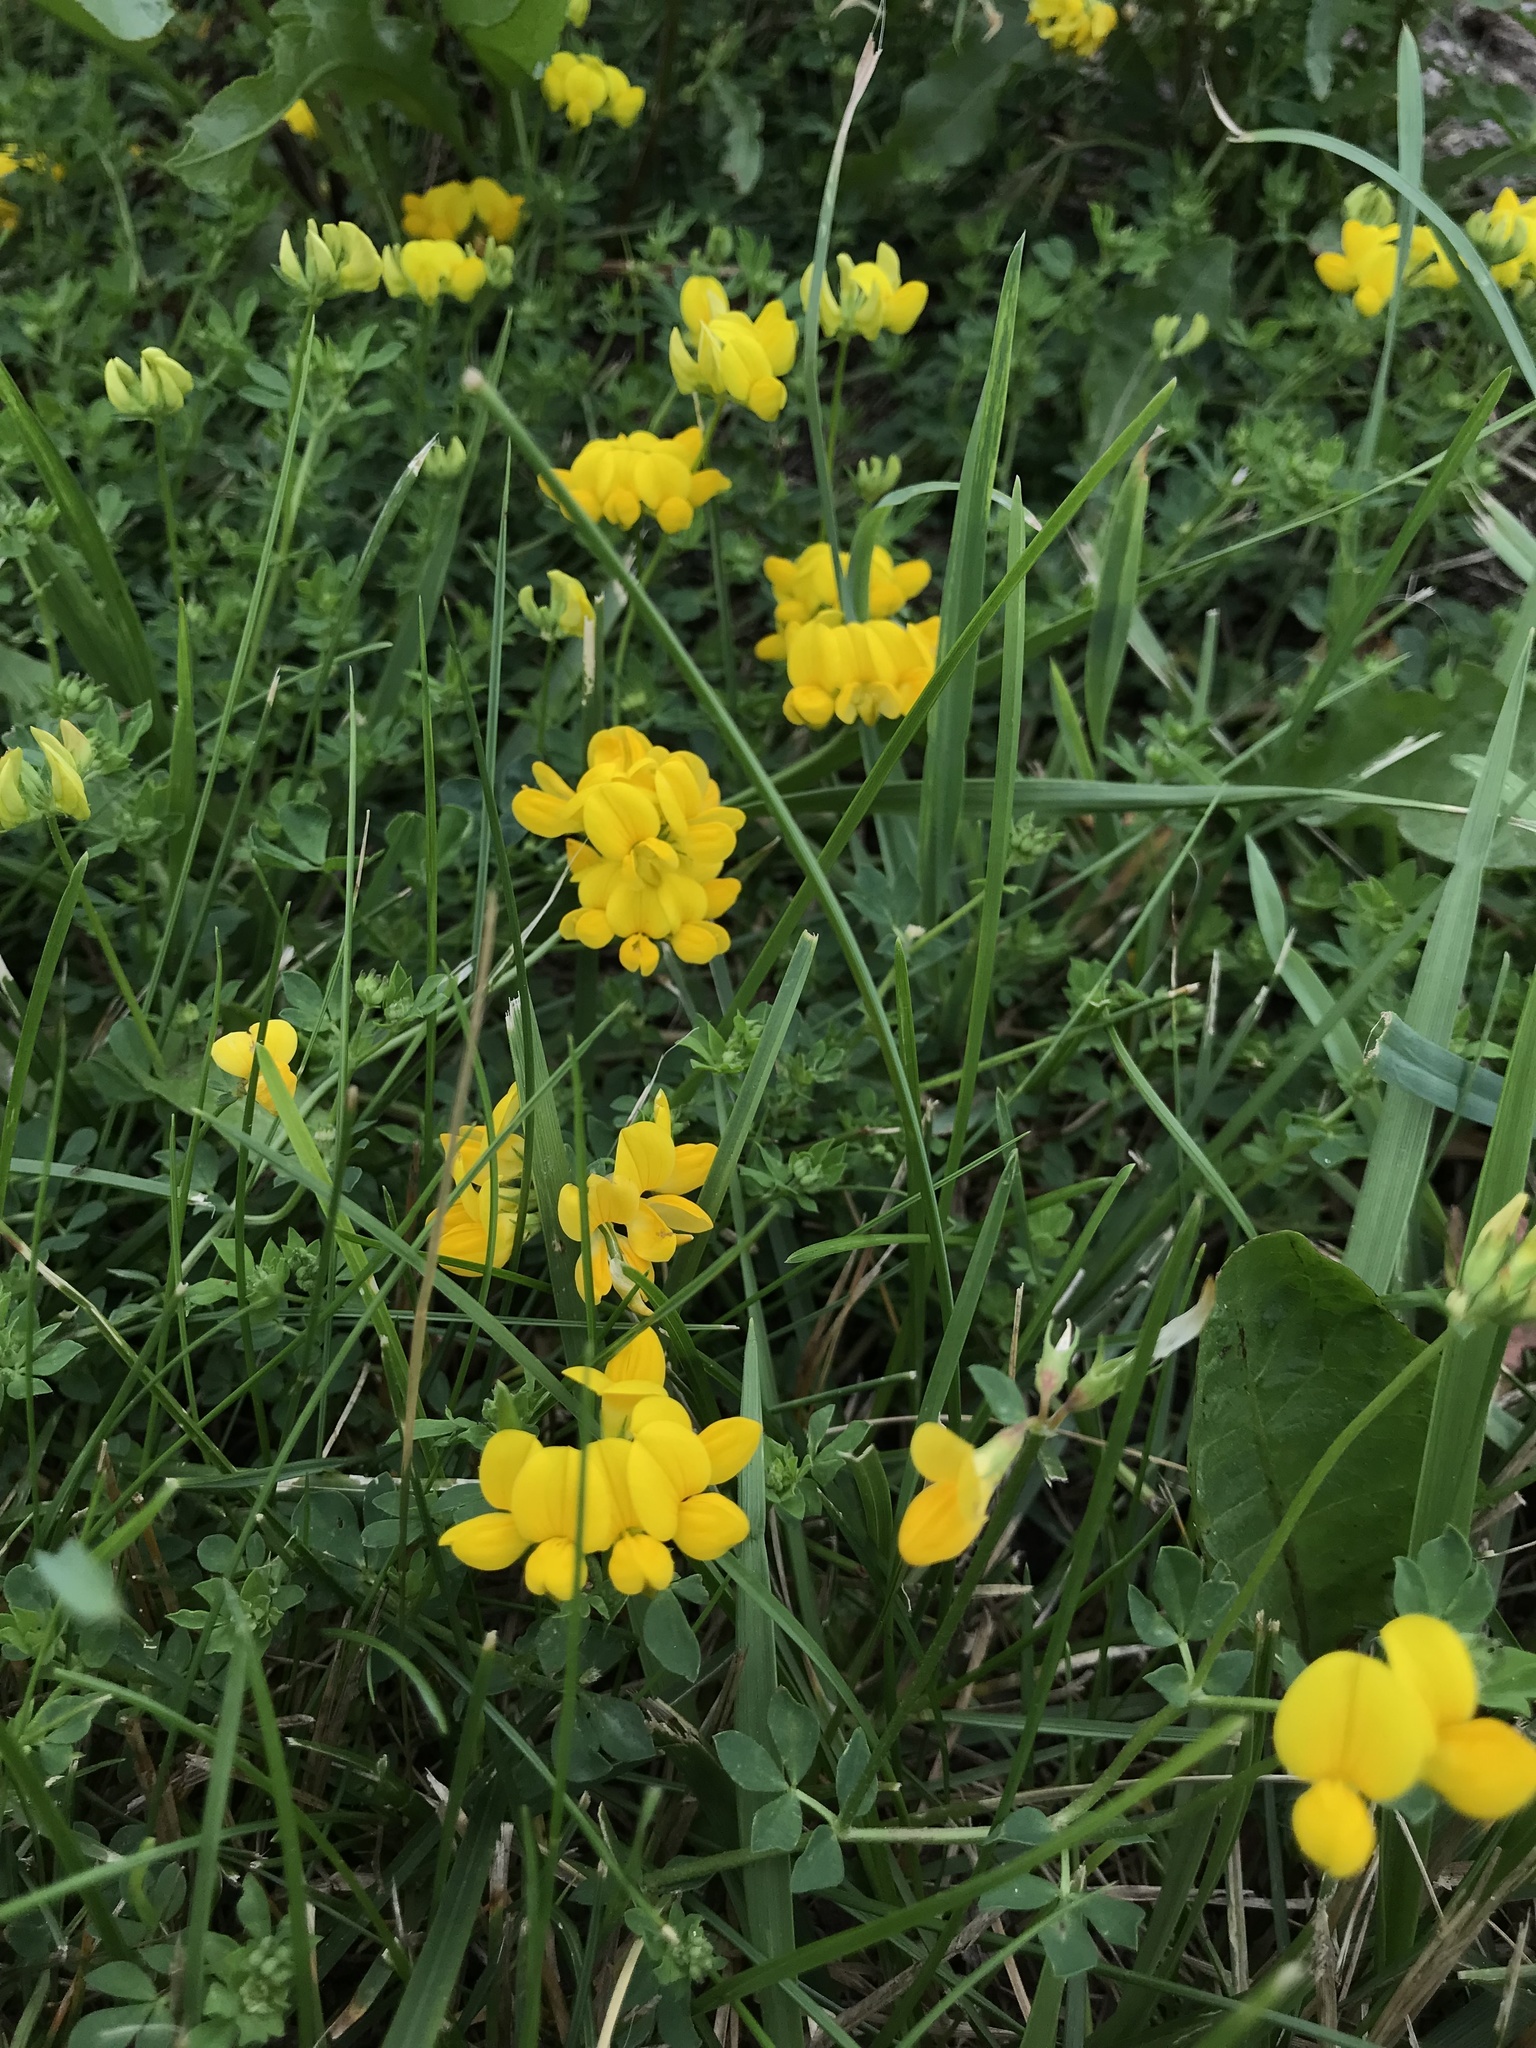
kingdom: Plantae
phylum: Tracheophyta
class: Magnoliopsida
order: Fabales
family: Fabaceae
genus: Lotus
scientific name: Lotus corniculatus
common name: Common bird's-foot-trefoil
